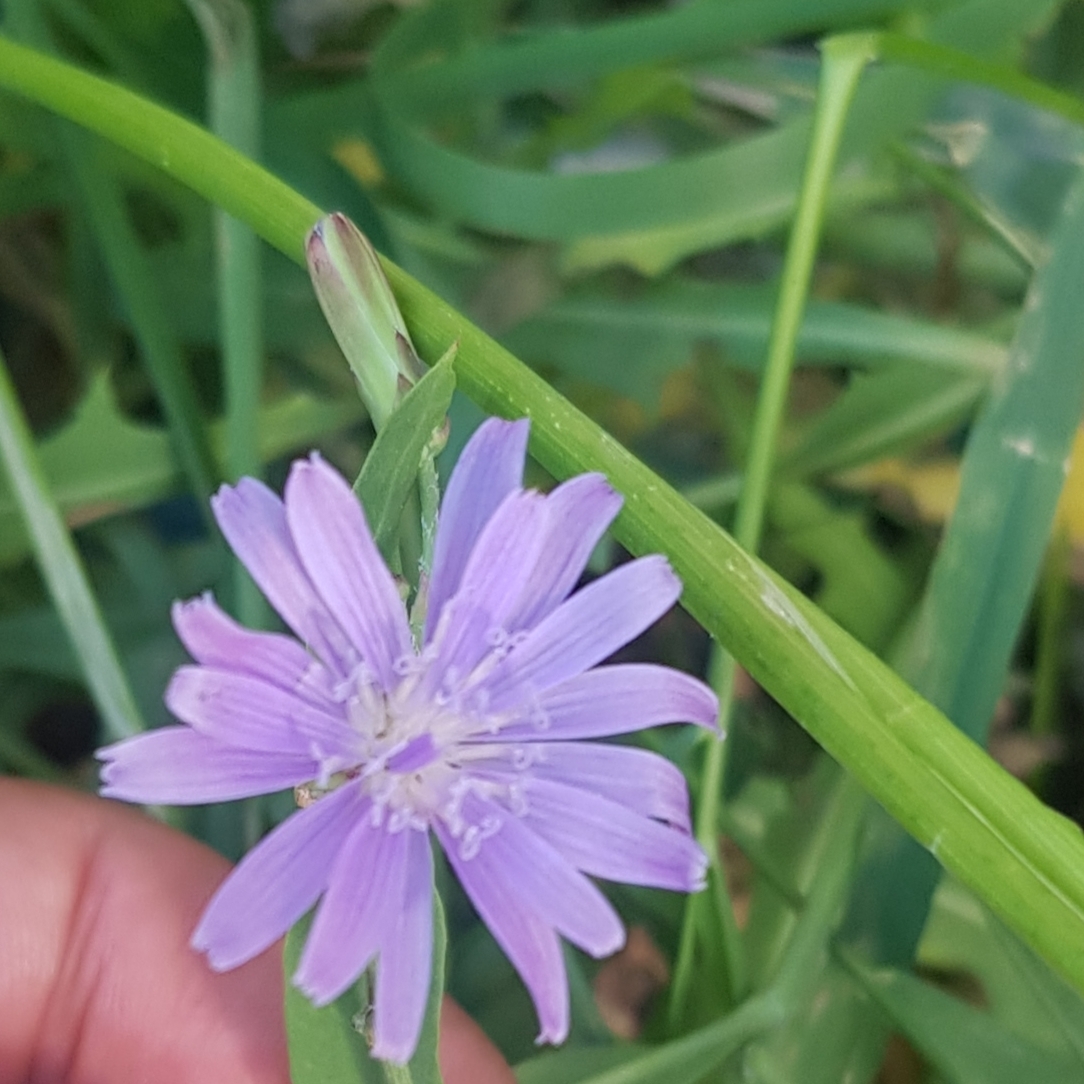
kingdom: Plantae
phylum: Tracheophyta
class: Magnoliopsida
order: Asterales
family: Asteraceae
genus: Lactuca
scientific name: Lactuca sibirica
